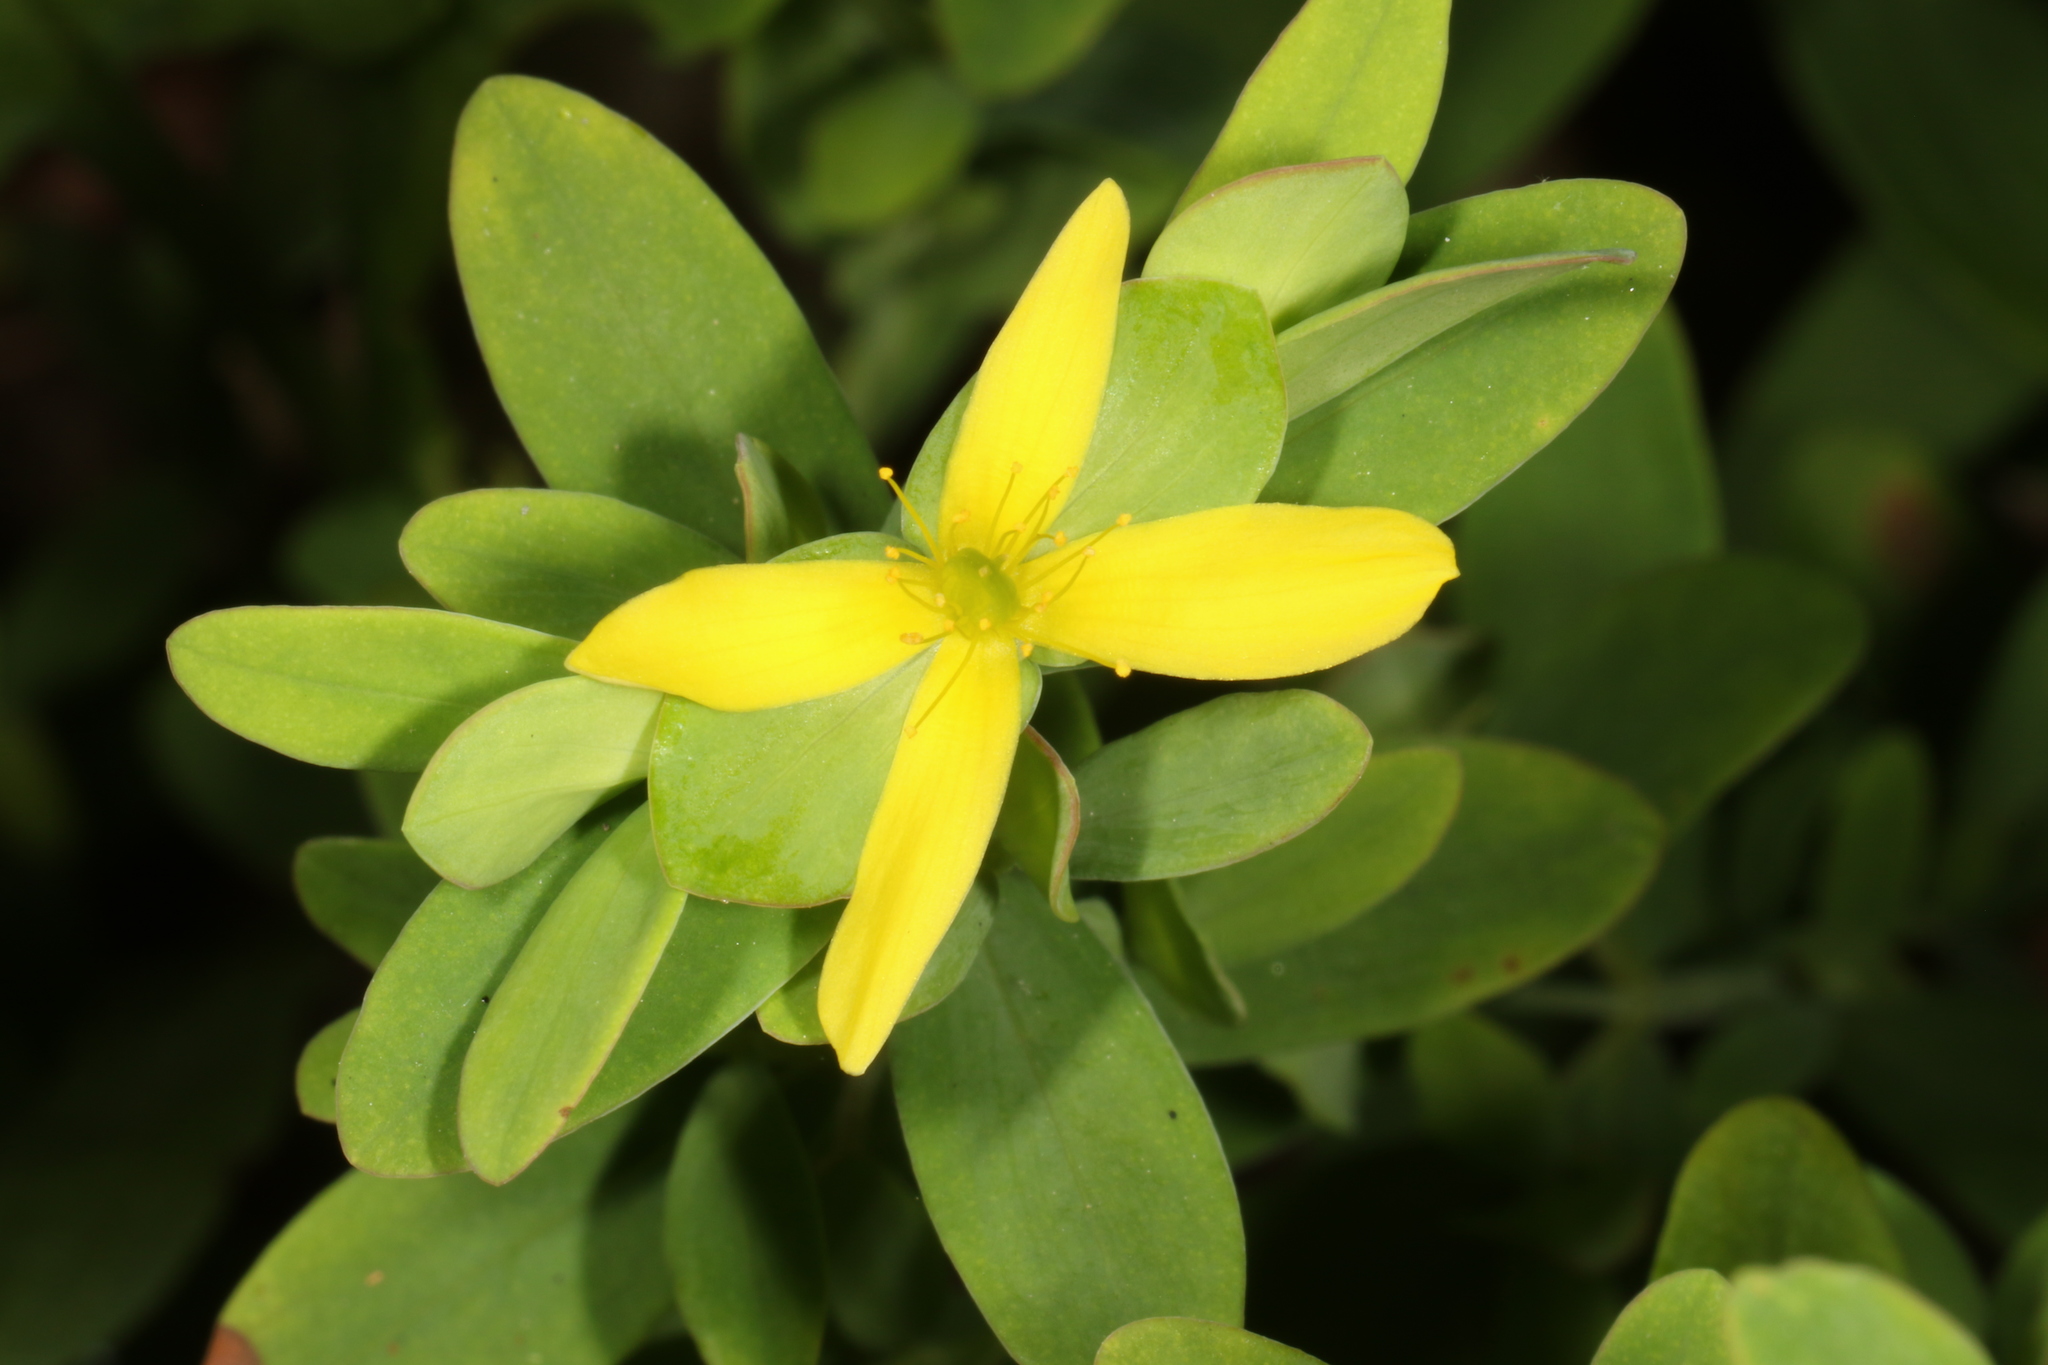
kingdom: Plantae
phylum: Tracheophyta
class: Magnoliopsida
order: Malpighiales
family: Hypericaceae
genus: Hypericum
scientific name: Hypericum hypericoides
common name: St. andrew's cross
